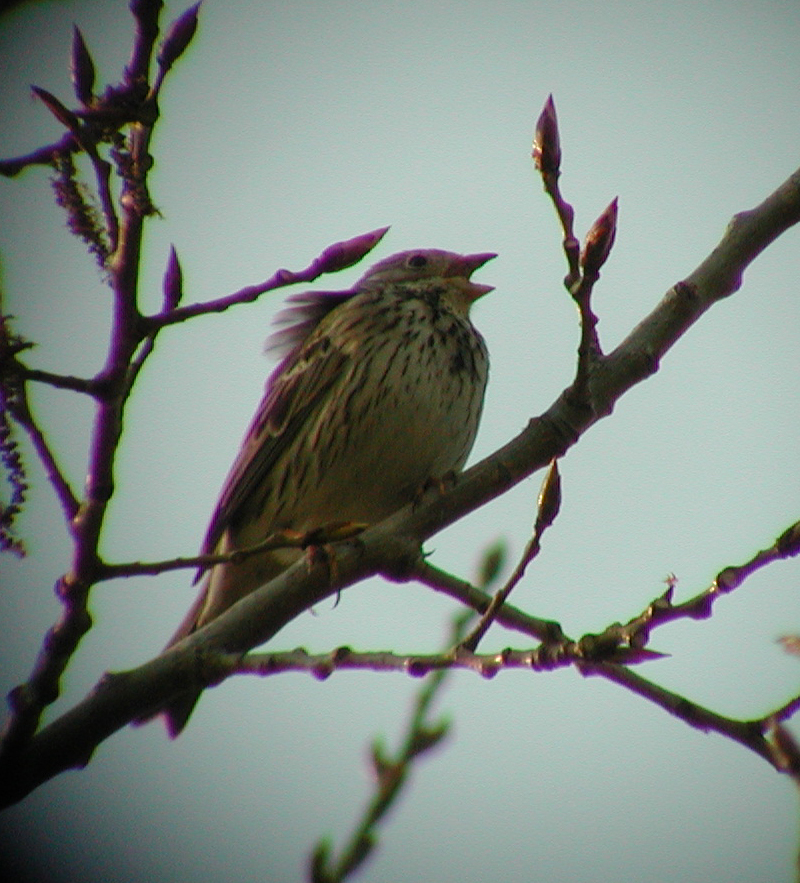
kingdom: Animalia
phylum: Chordata
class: Aves
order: Passeriformes
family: Emberizidae
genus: Emberiza
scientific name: Emberiza calandra
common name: Corn bunting
